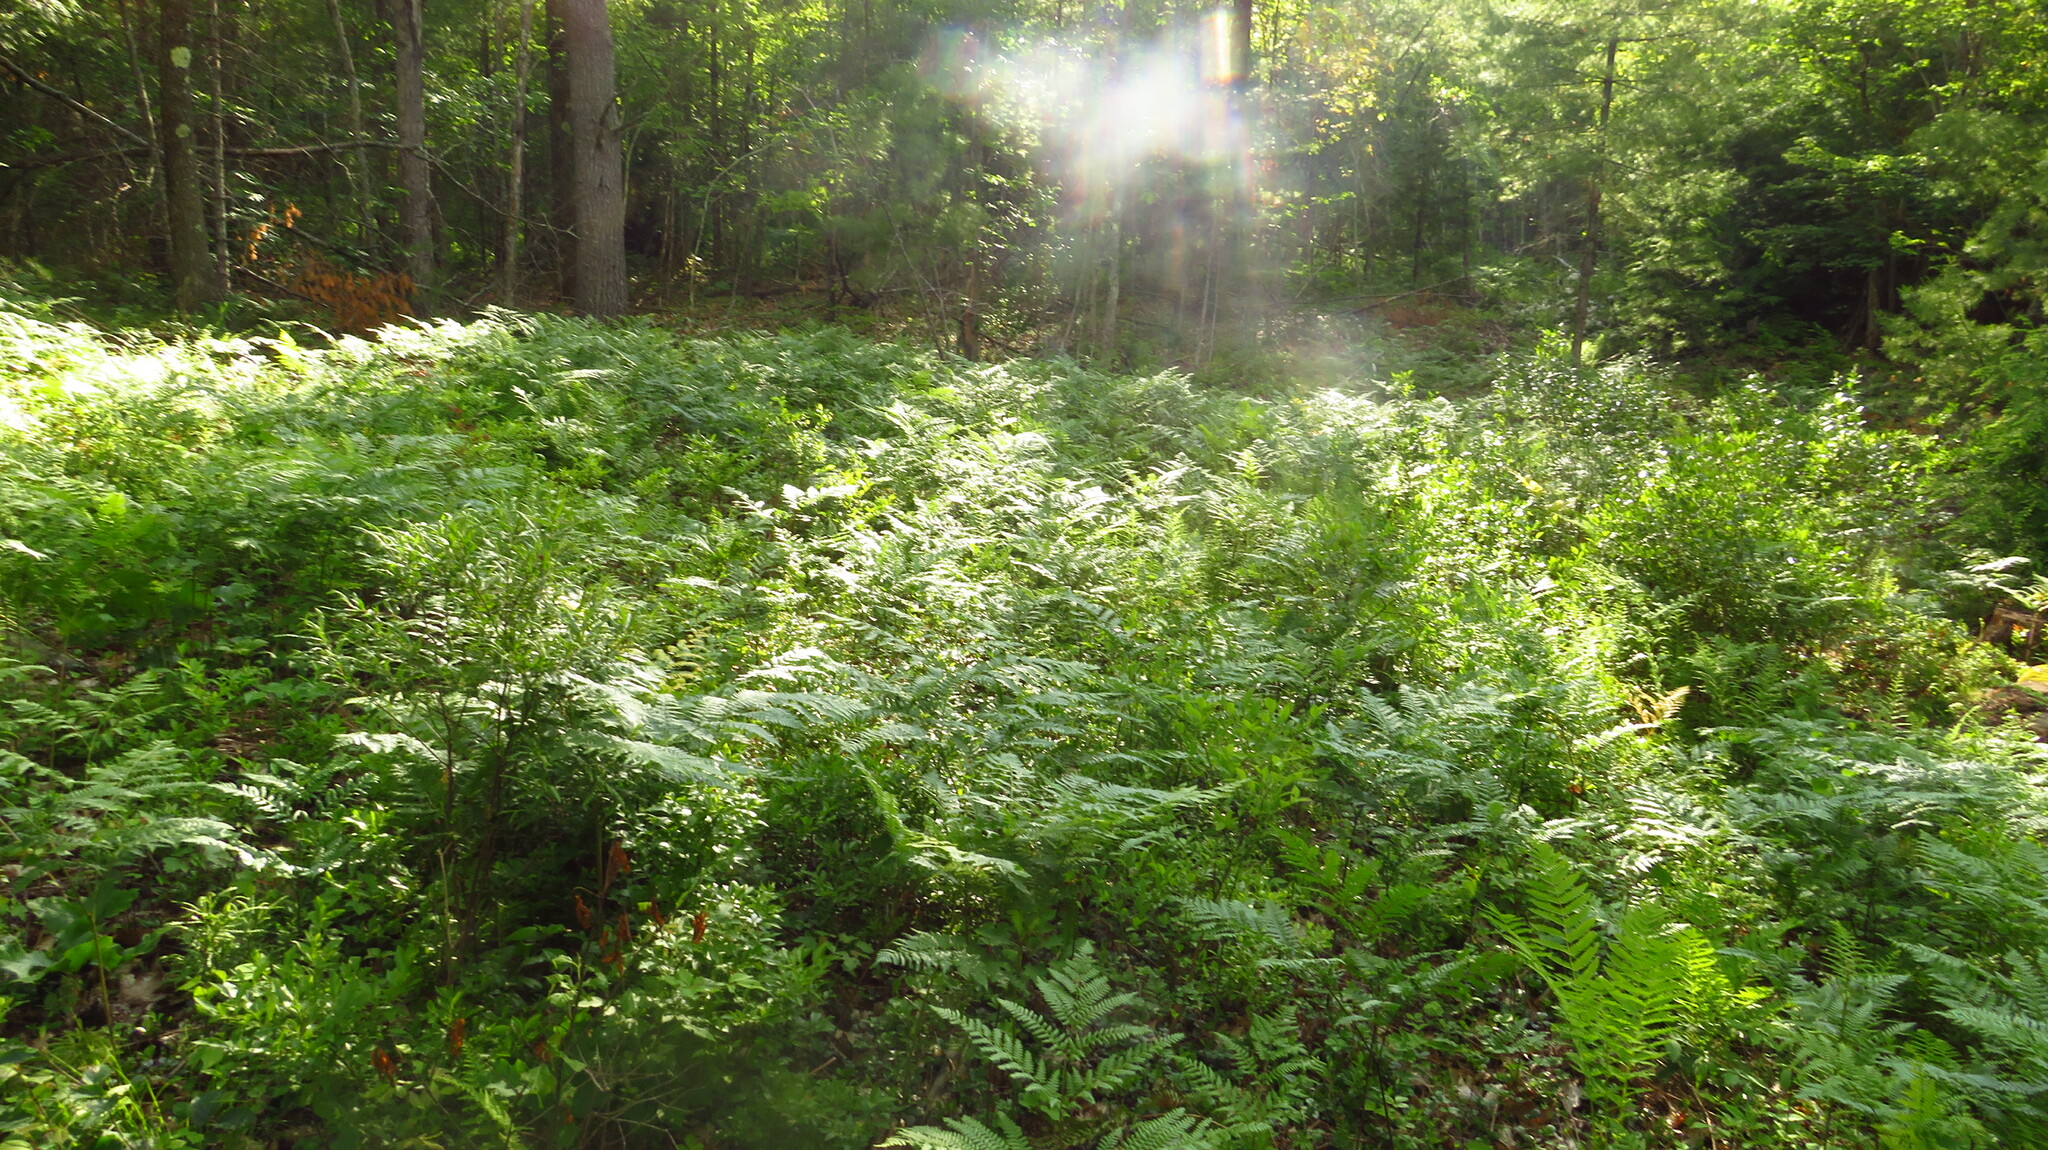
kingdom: Plantae
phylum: Tracheophyta
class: Polypodiopsida
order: Polypodiales
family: Dennstaedtiaceae
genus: Pteridium
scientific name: Pteridium aquilinum
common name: Bracken
